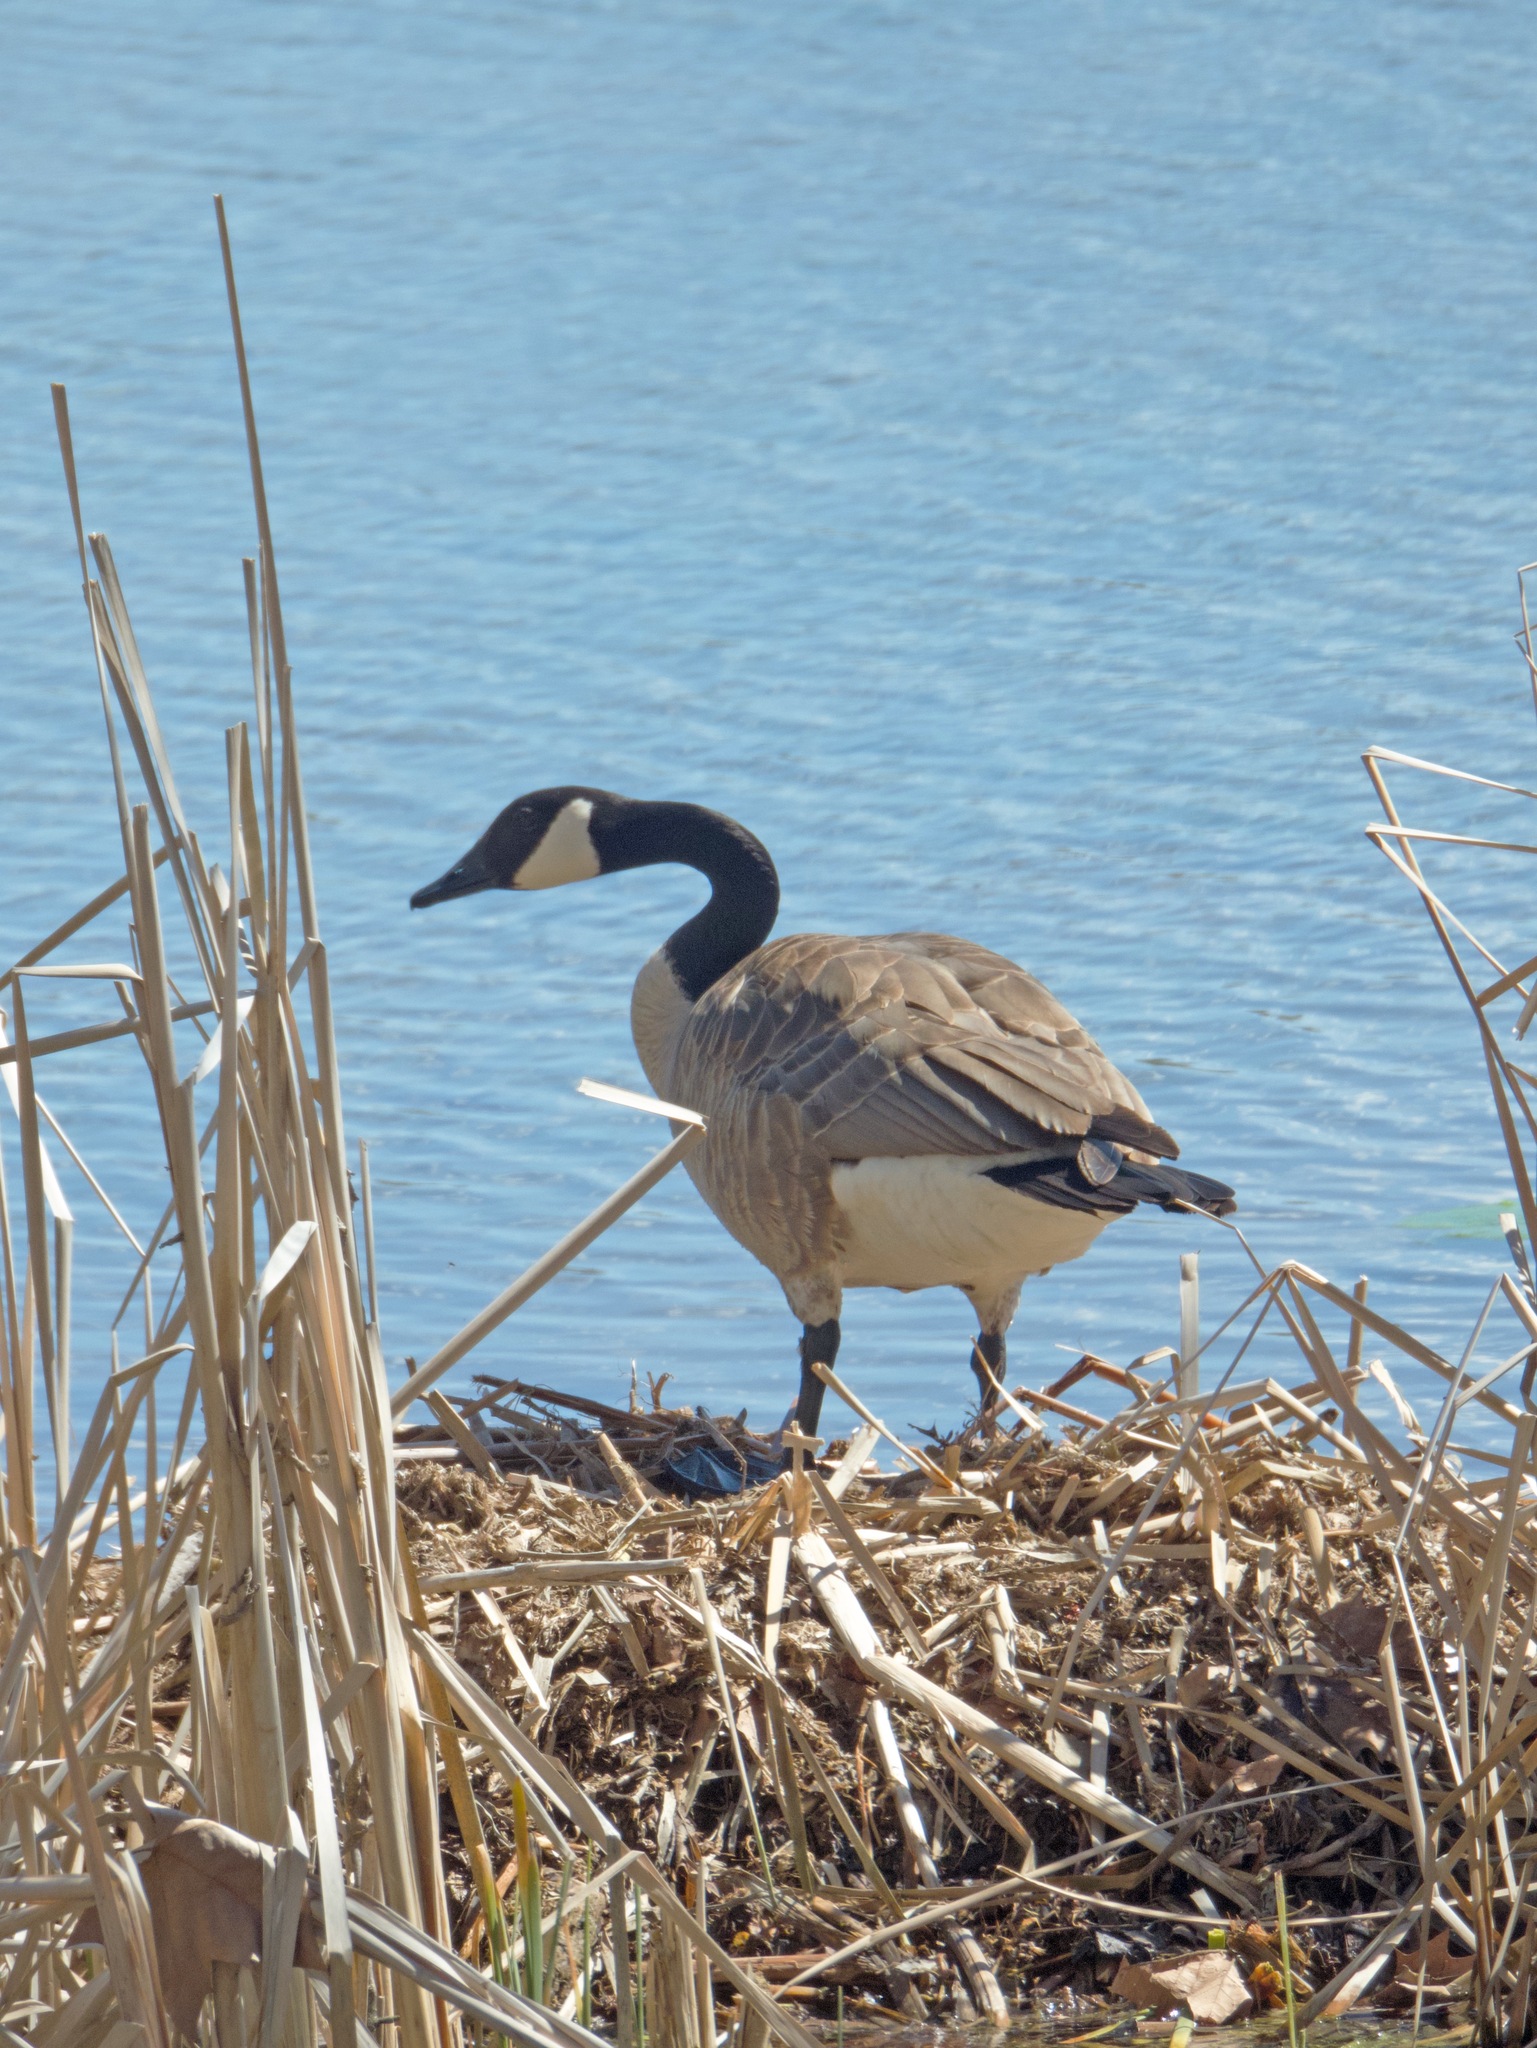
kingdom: Animalia
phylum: Chordata
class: Aves
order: Anseriformes
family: Anatidae
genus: Branta
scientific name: Branta canadensis
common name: Canada goose
